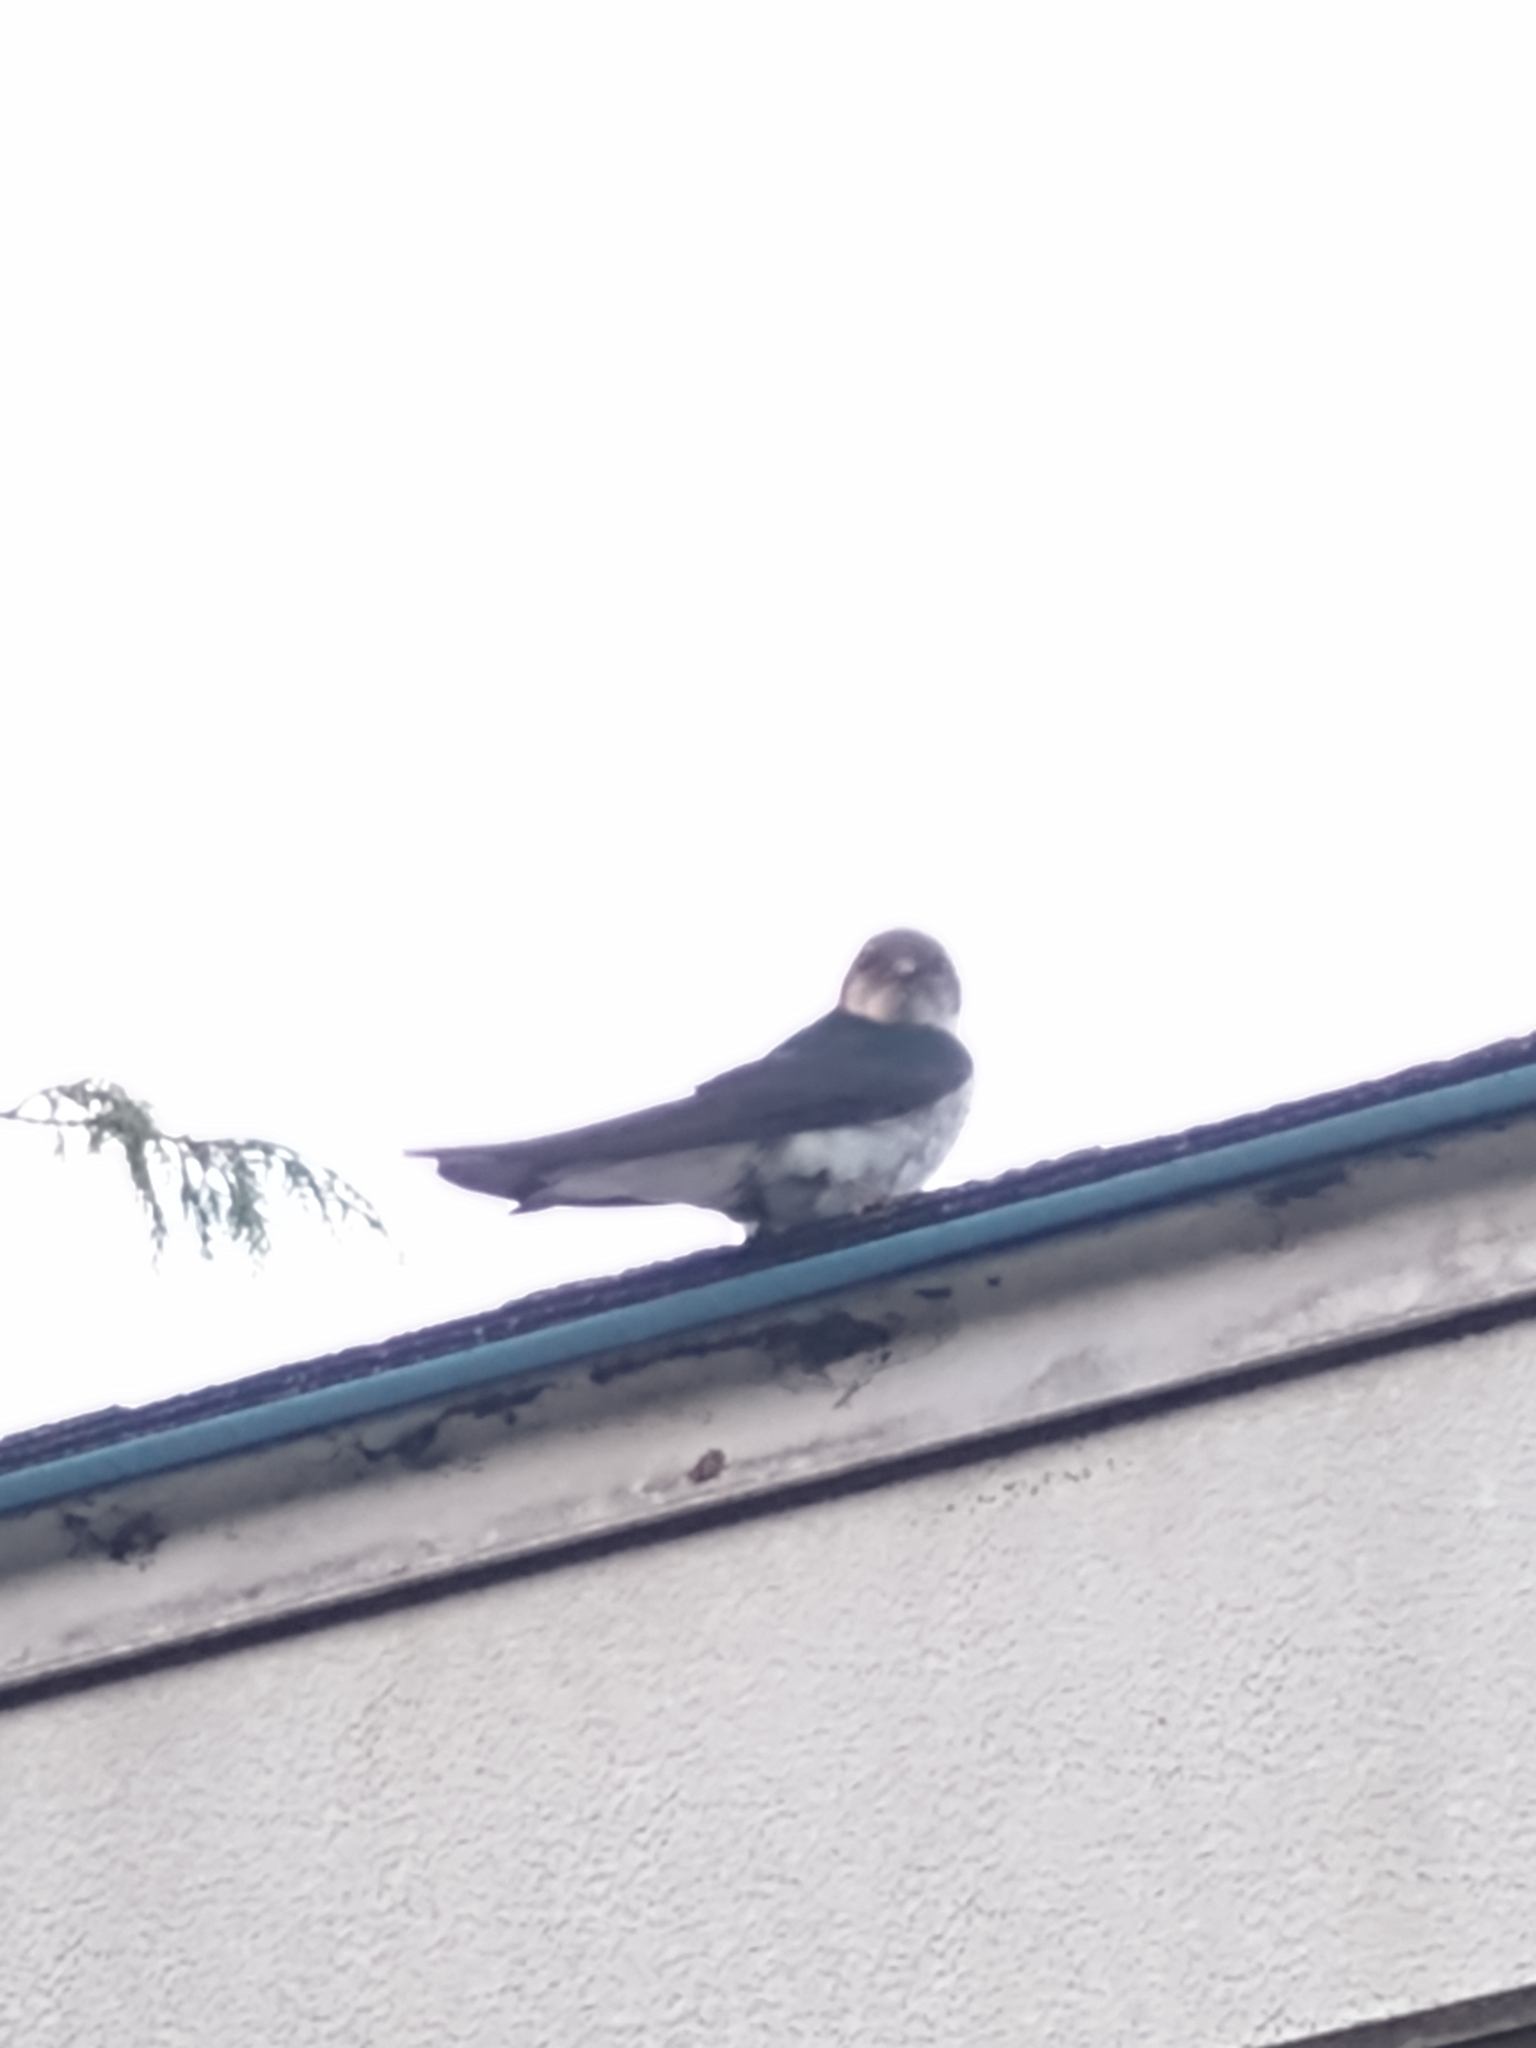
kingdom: Animalia
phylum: Chordata
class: Aves
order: Passeriformes
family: Hirundinidae
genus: Tachycineta
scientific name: Tachycineta bicolor
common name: Tree swallow
